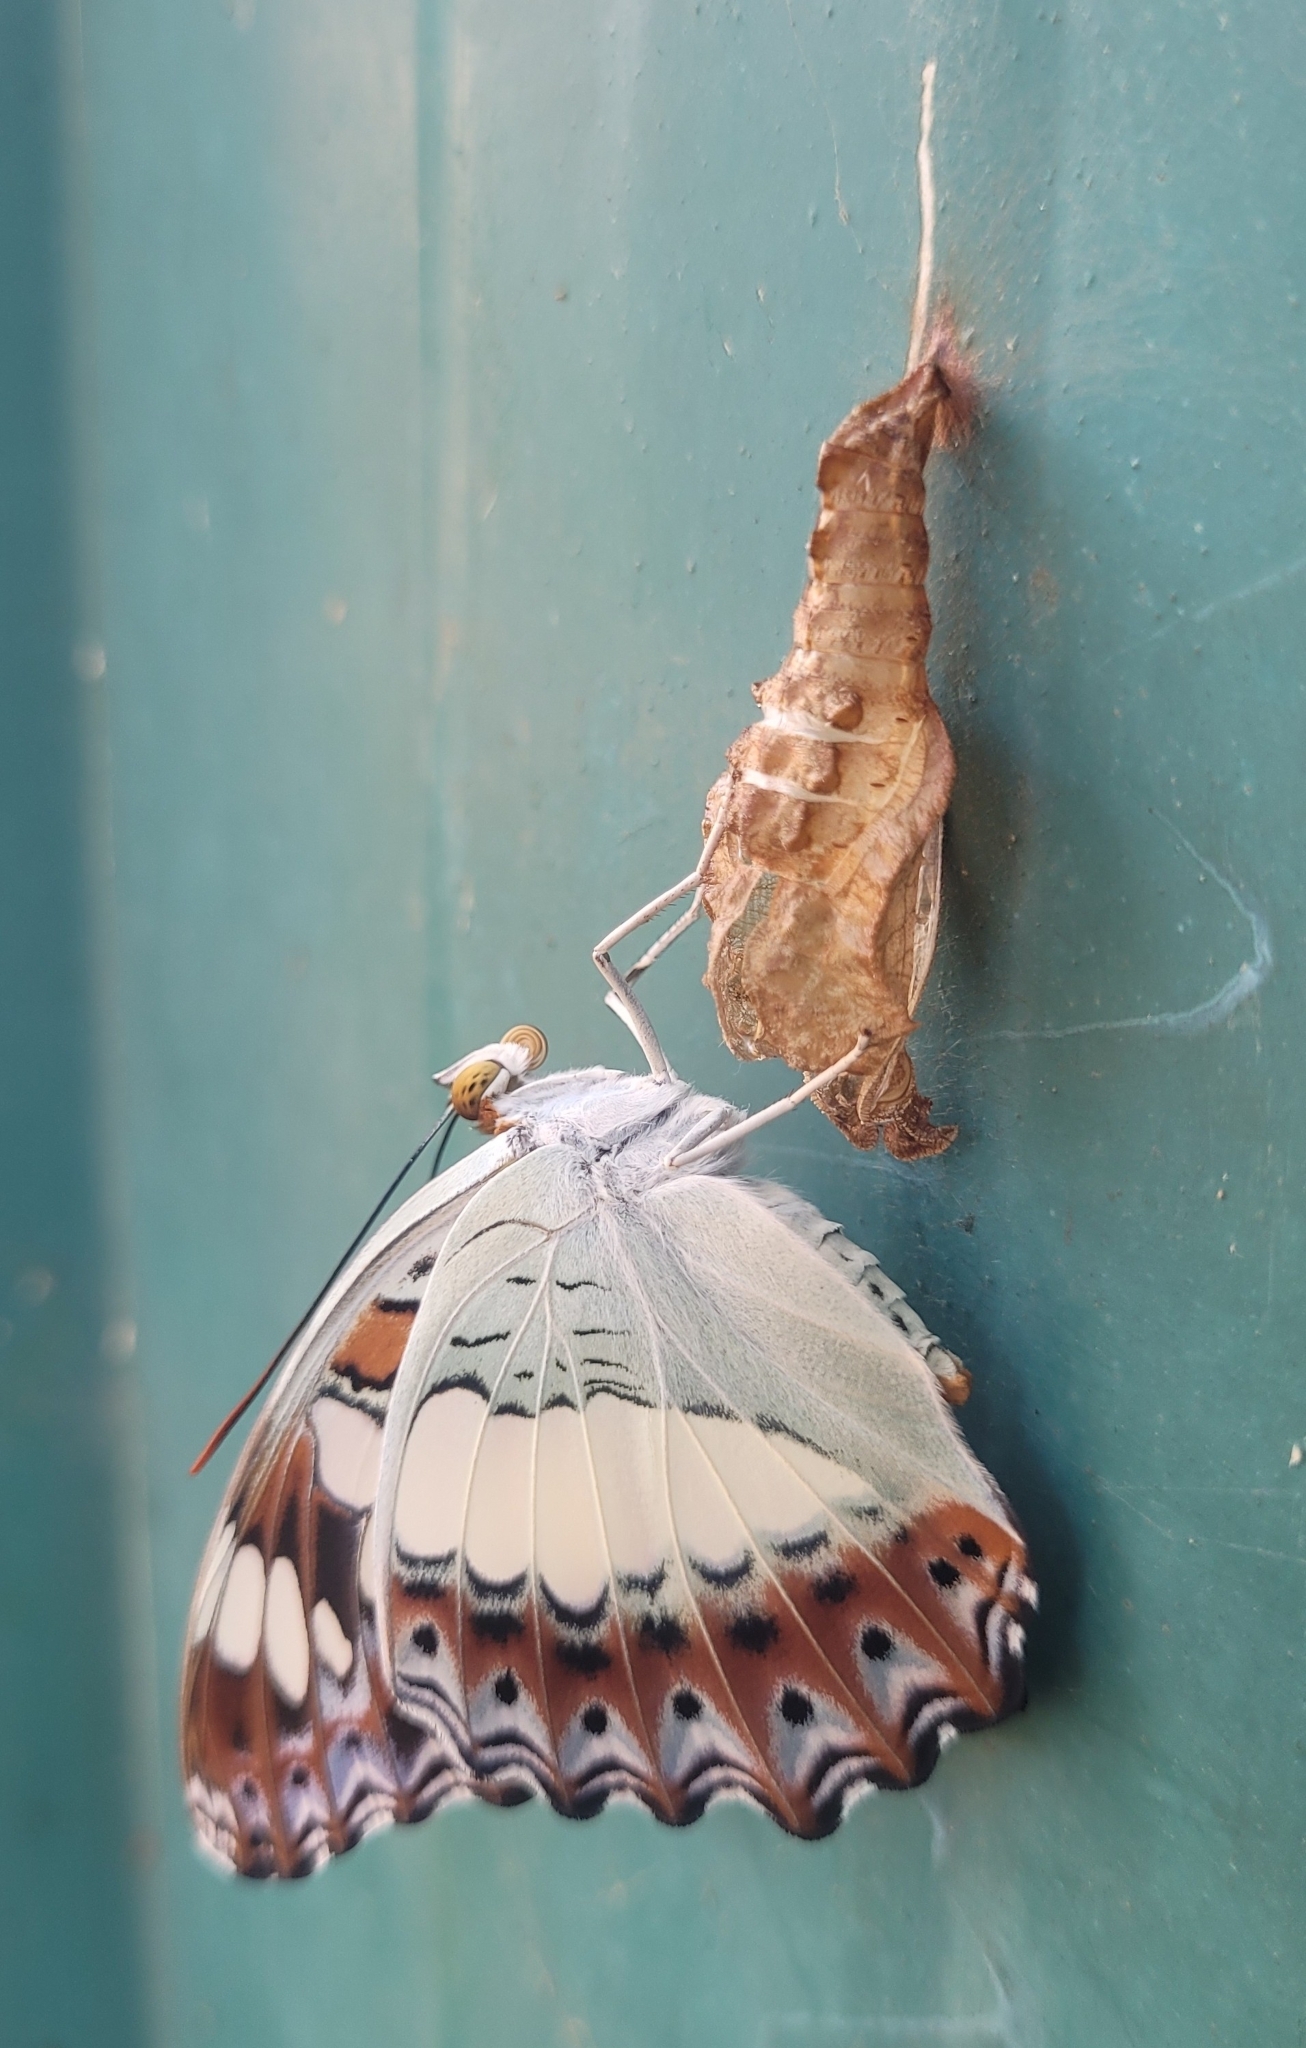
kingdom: Animalia
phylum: Arthropoda
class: Insecta
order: Lepidoptera
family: Nymphalidae
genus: Limenitis
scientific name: Limenitis Moduza procris
